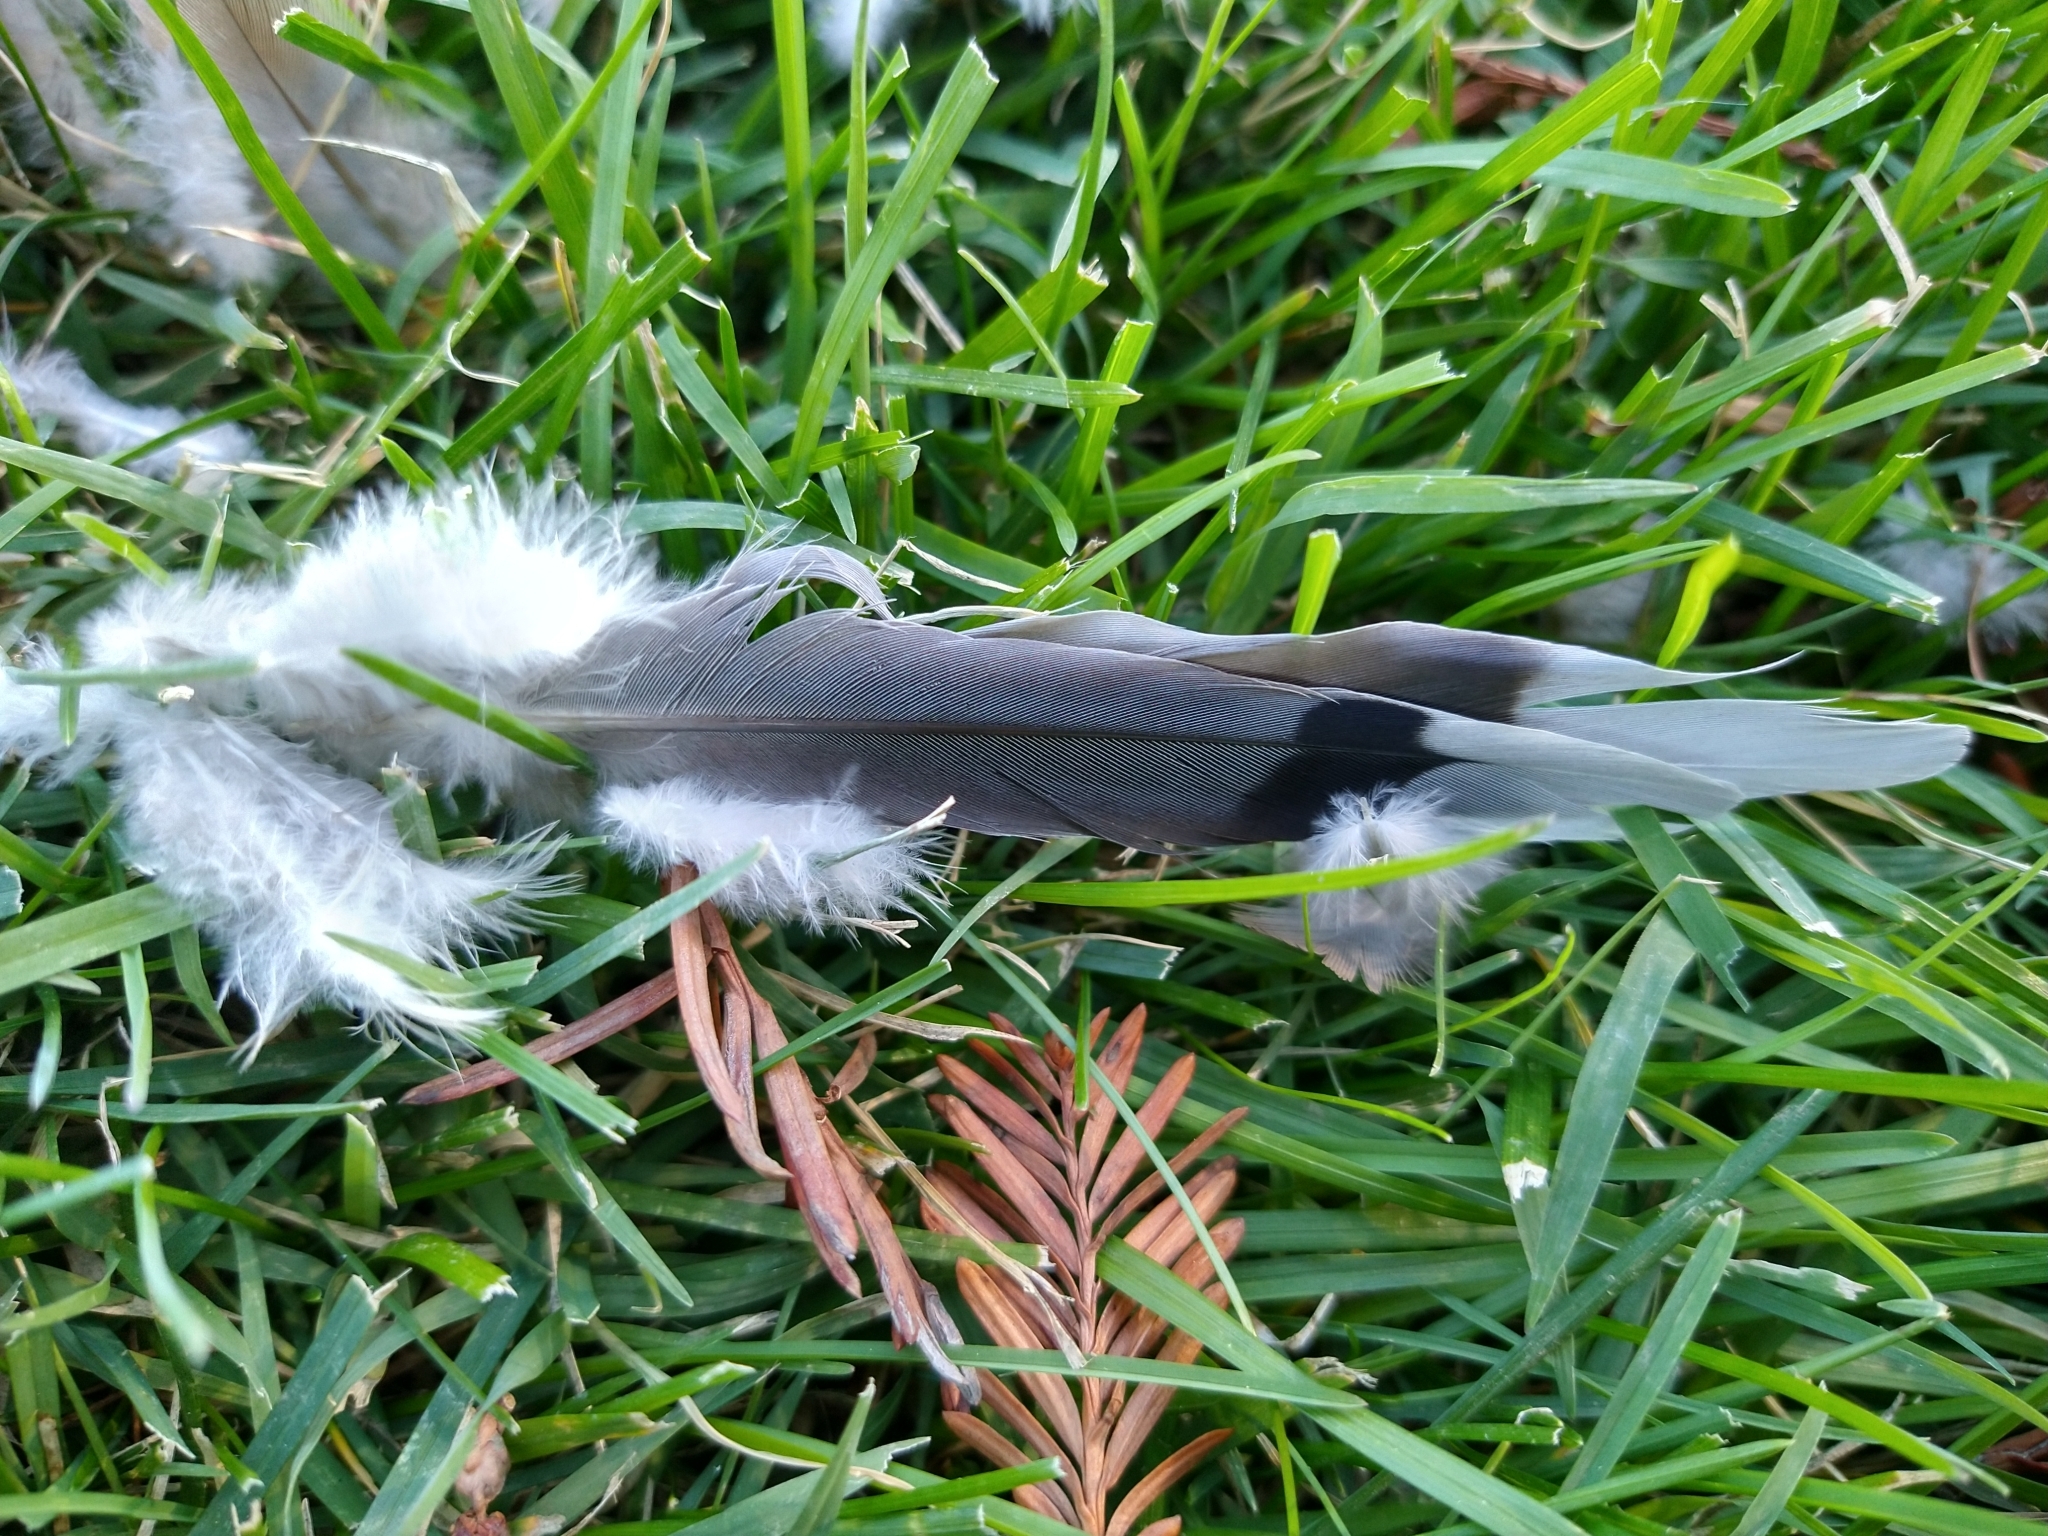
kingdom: Animalia
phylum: Chordata
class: Aves
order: Columbiformes
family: Columbidae
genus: Zenaida
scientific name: Zenaida macroura
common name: Mourning dove
